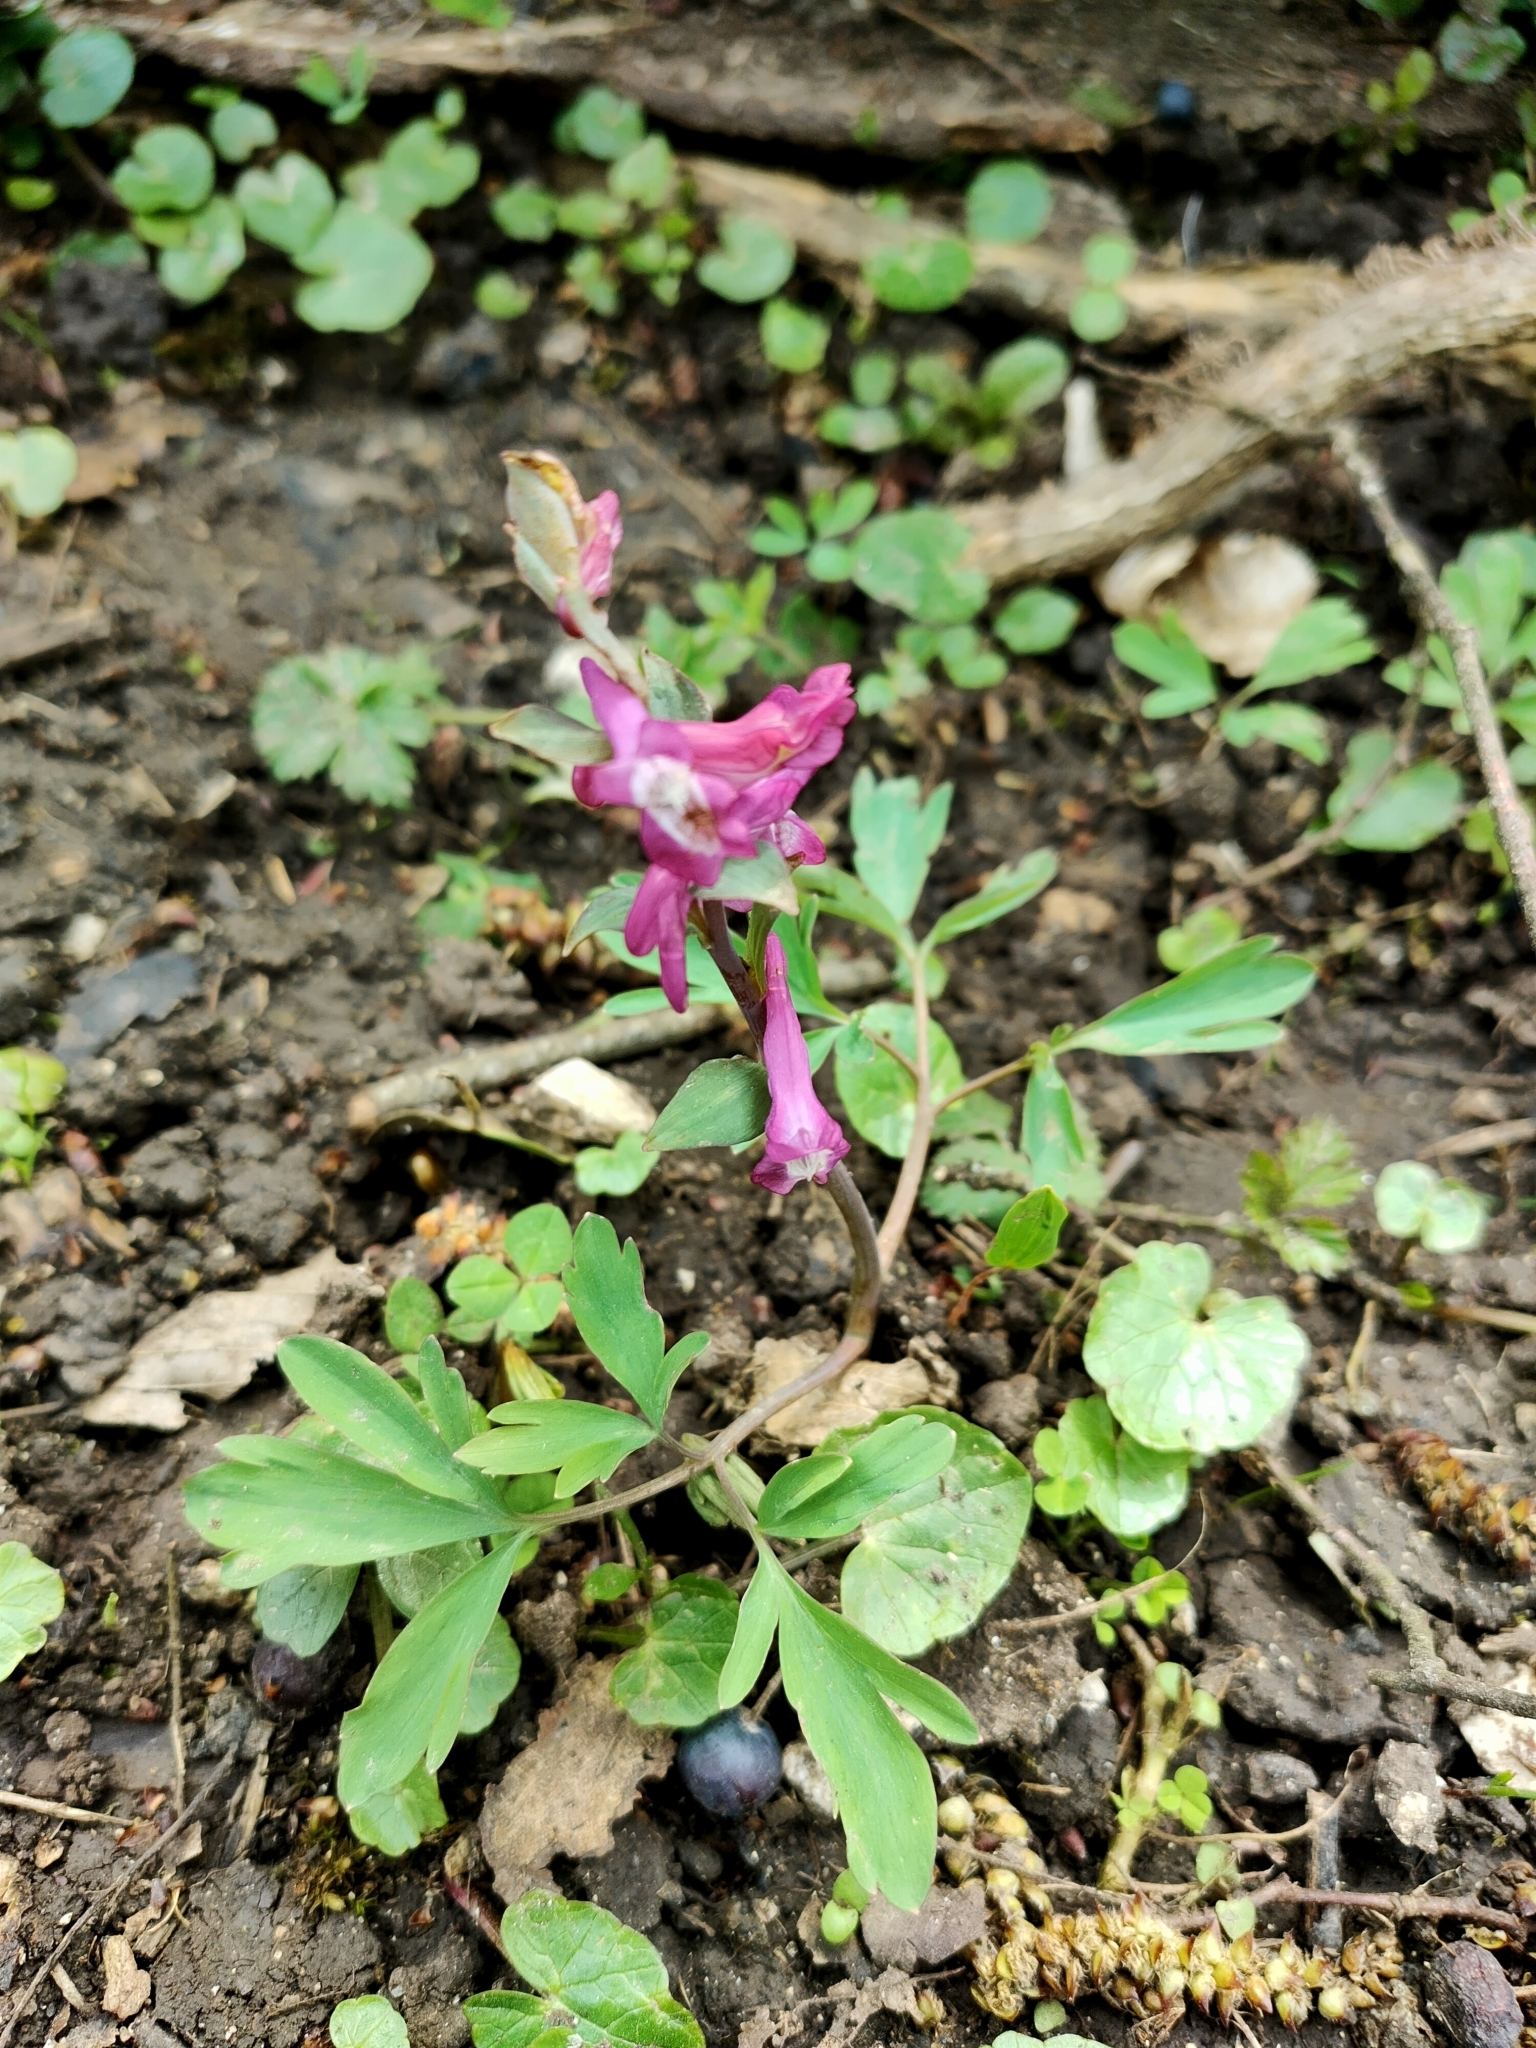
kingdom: Plantae
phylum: Tracheophyta
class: Magnoliopsida
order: Ranunculales
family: Papaveraceae
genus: Corydalis
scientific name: Corydalis cava
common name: Hollowroot
